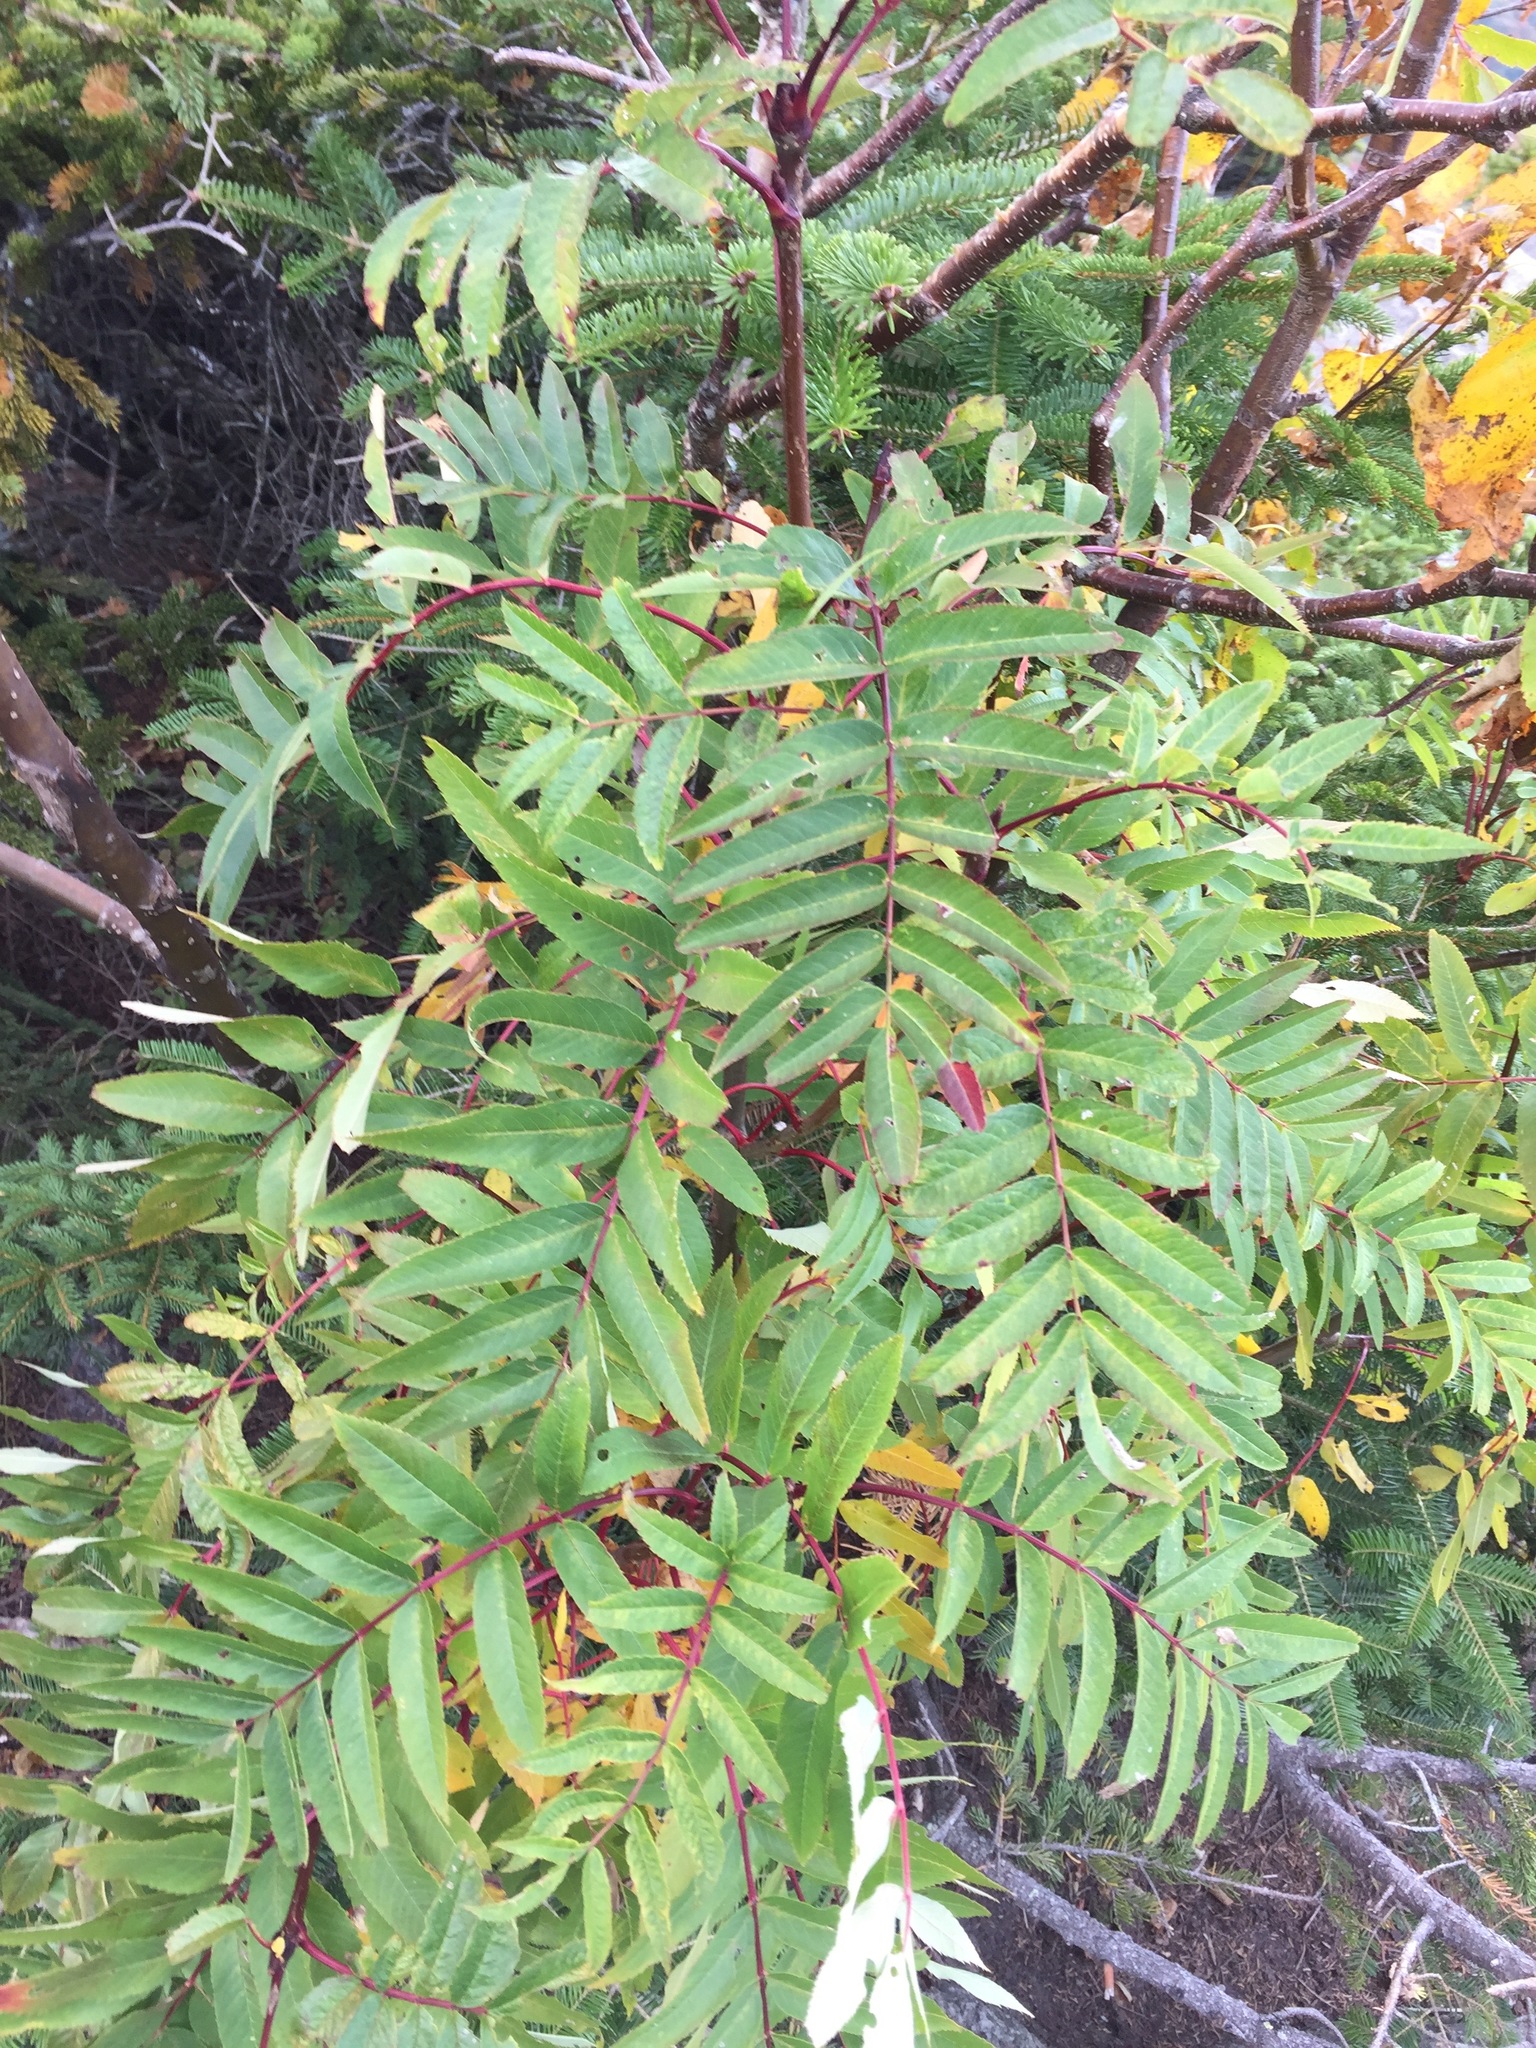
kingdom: Plantae
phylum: Tracheophyta
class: Magnoliopsida
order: Rosales
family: Rosaceae
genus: Sorbus
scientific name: Sorbus americana
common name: American mountain-ash
